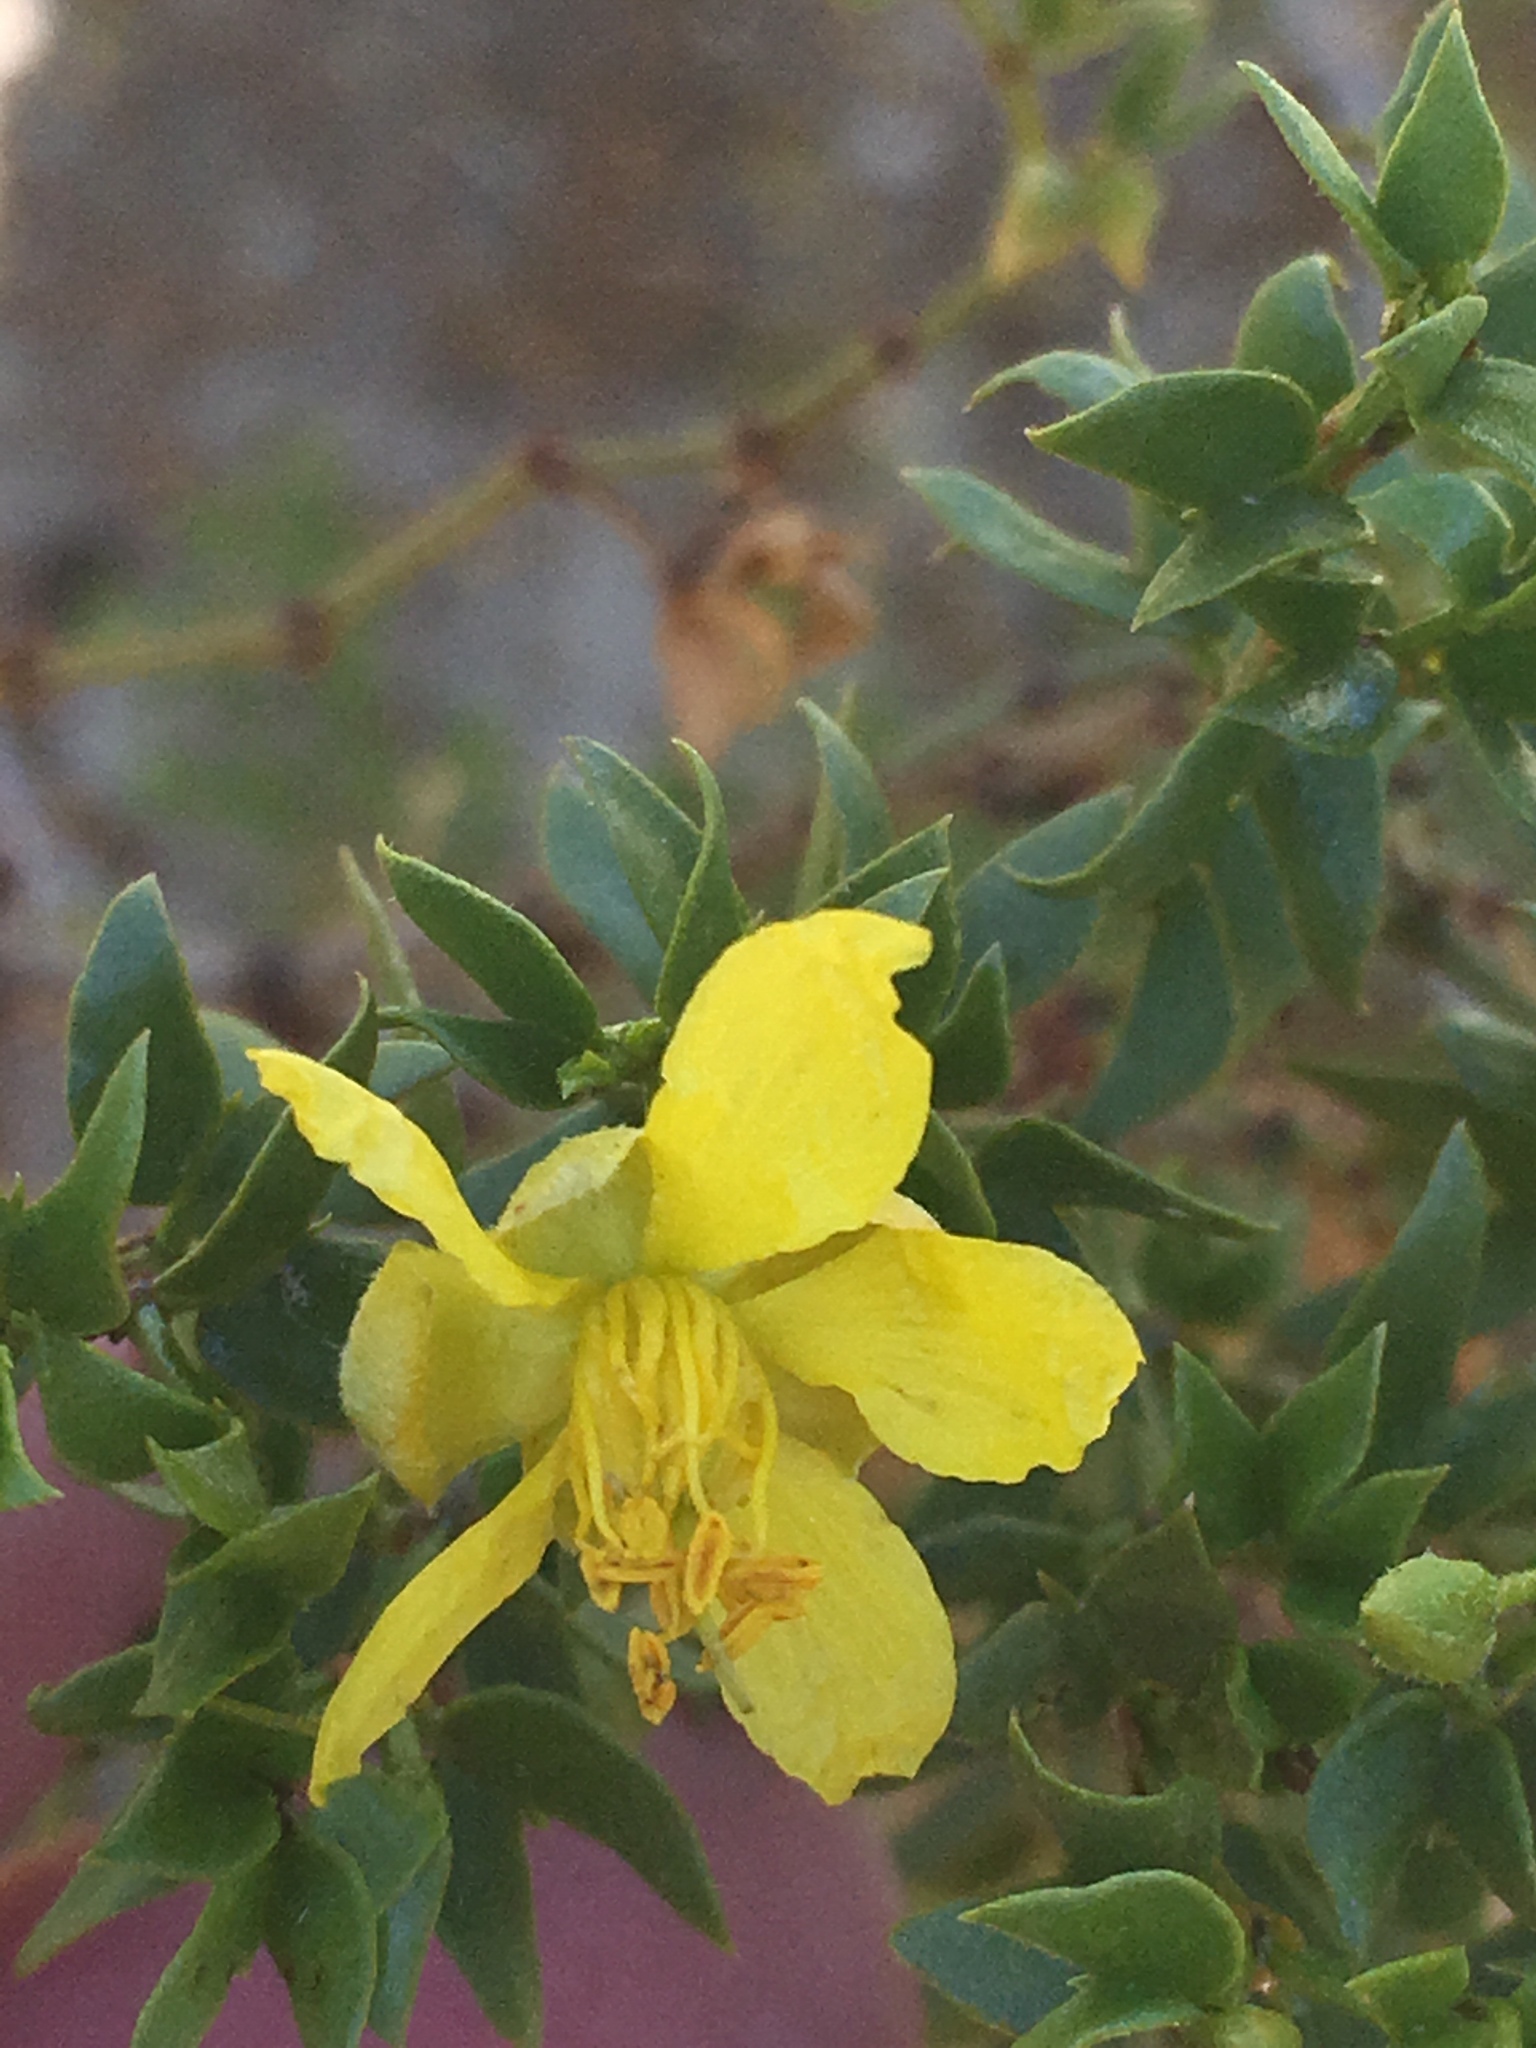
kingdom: Animalia
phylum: Arthropoda
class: Insecta
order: Diptera
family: Cecidomyiidae
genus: Asphondylia
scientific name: Asphondylia auripila
